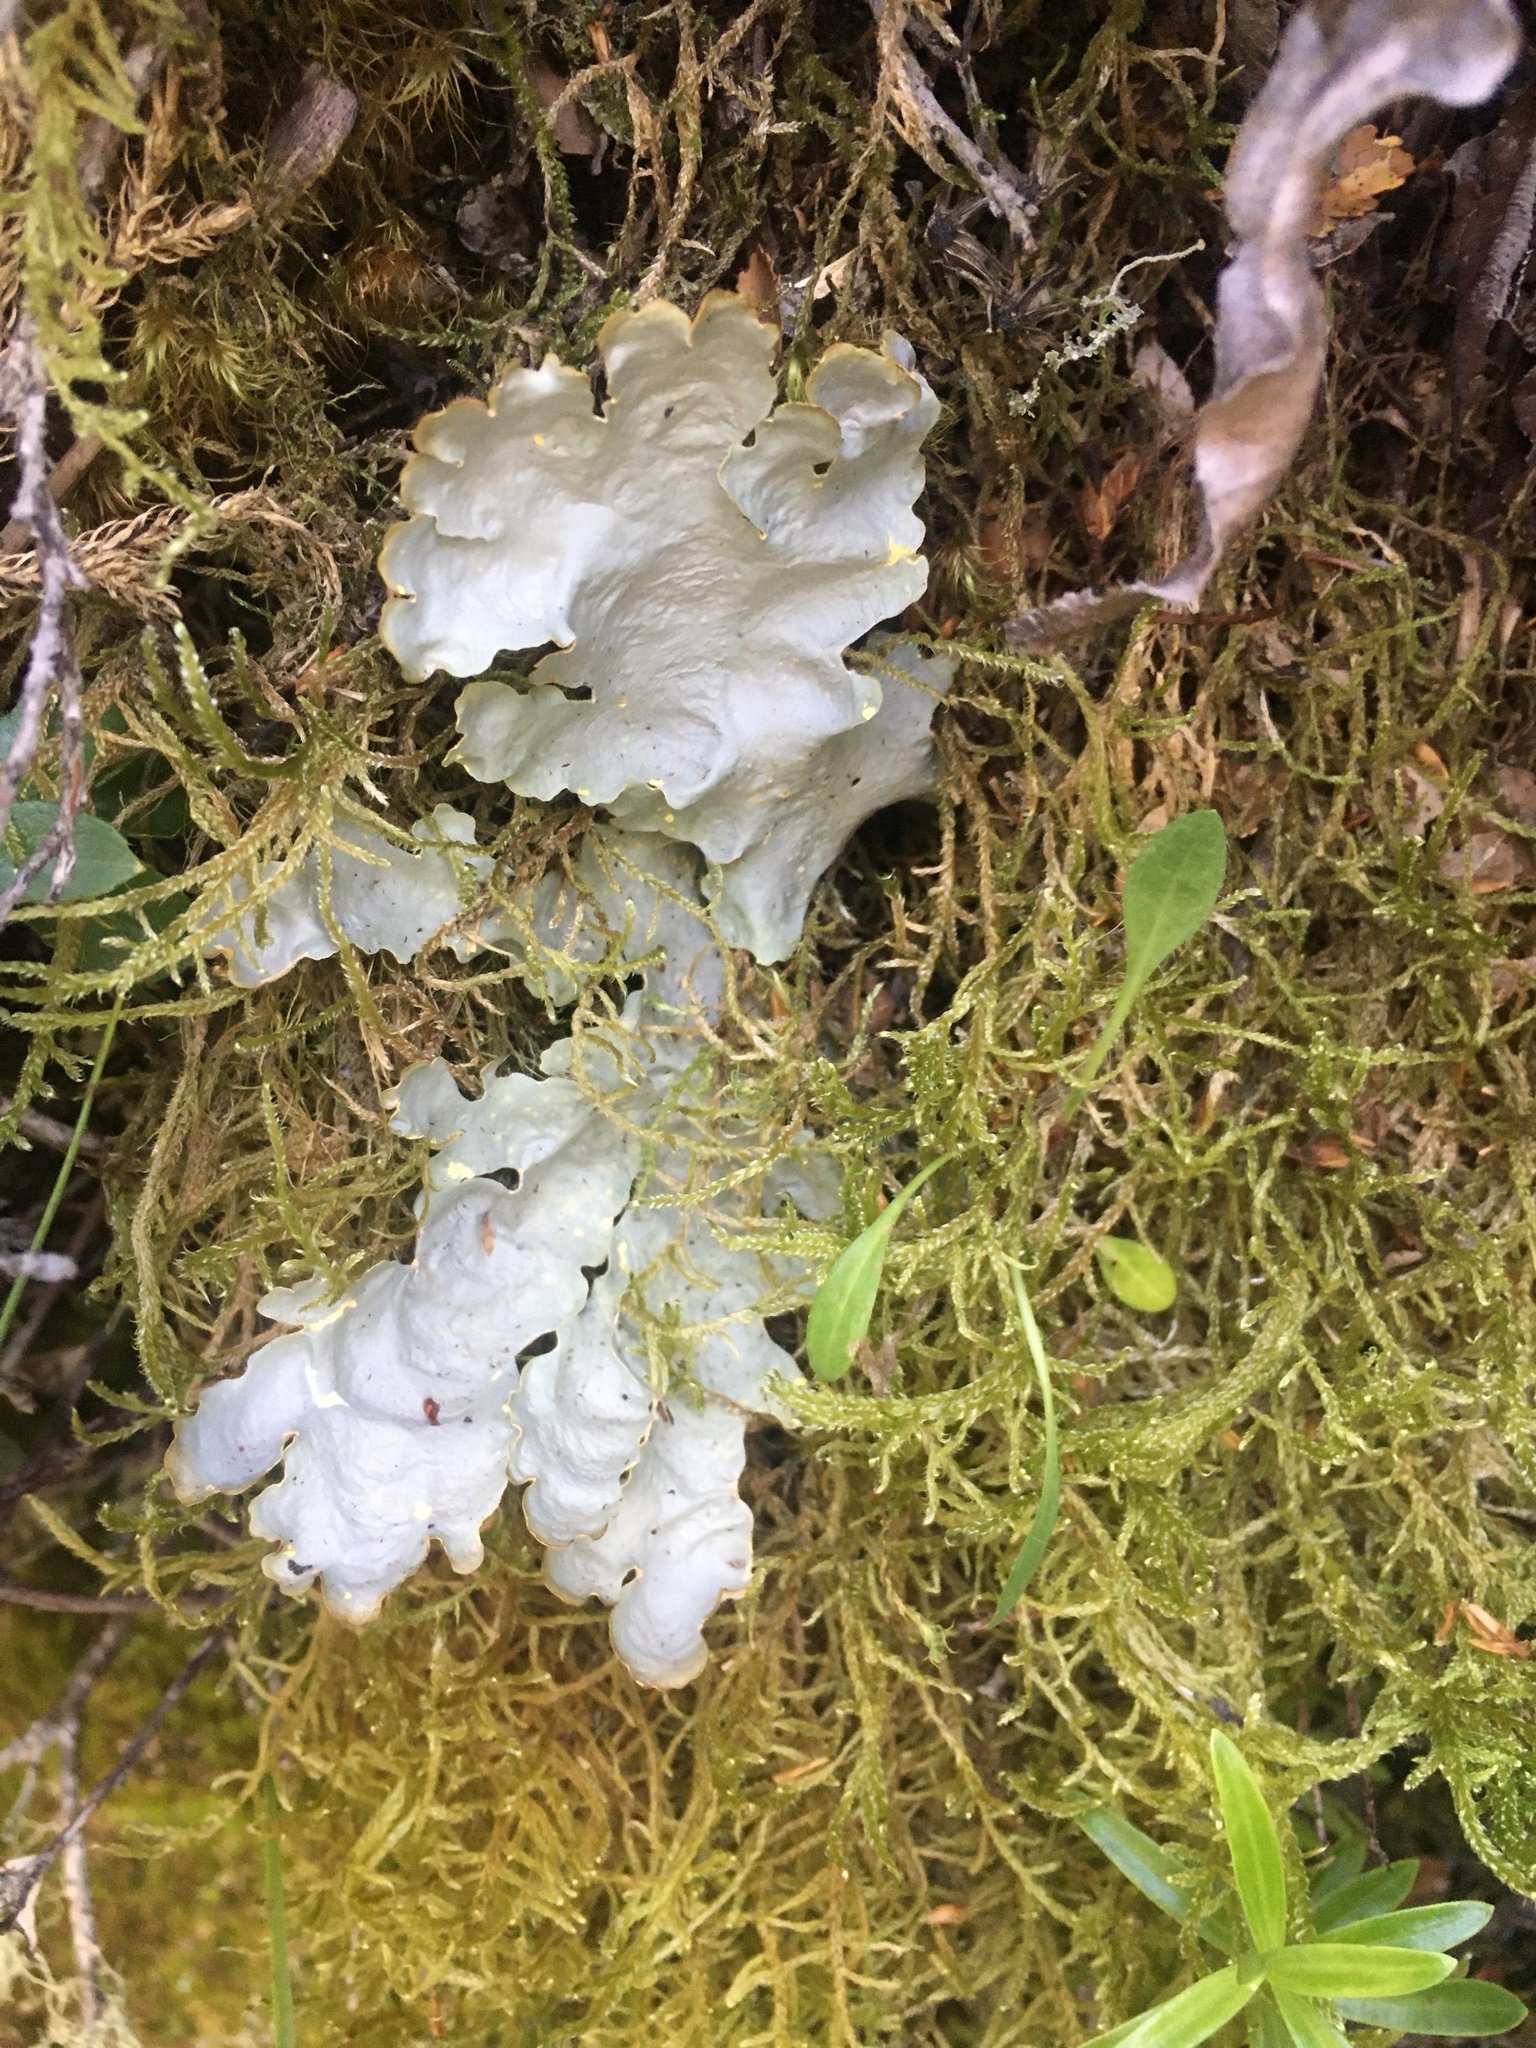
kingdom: Fungi
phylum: Ascomycota
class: Lecanoromycetes
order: Peltigerales
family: Lobariaceae
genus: Podostictina
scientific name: Podostictina degelii
